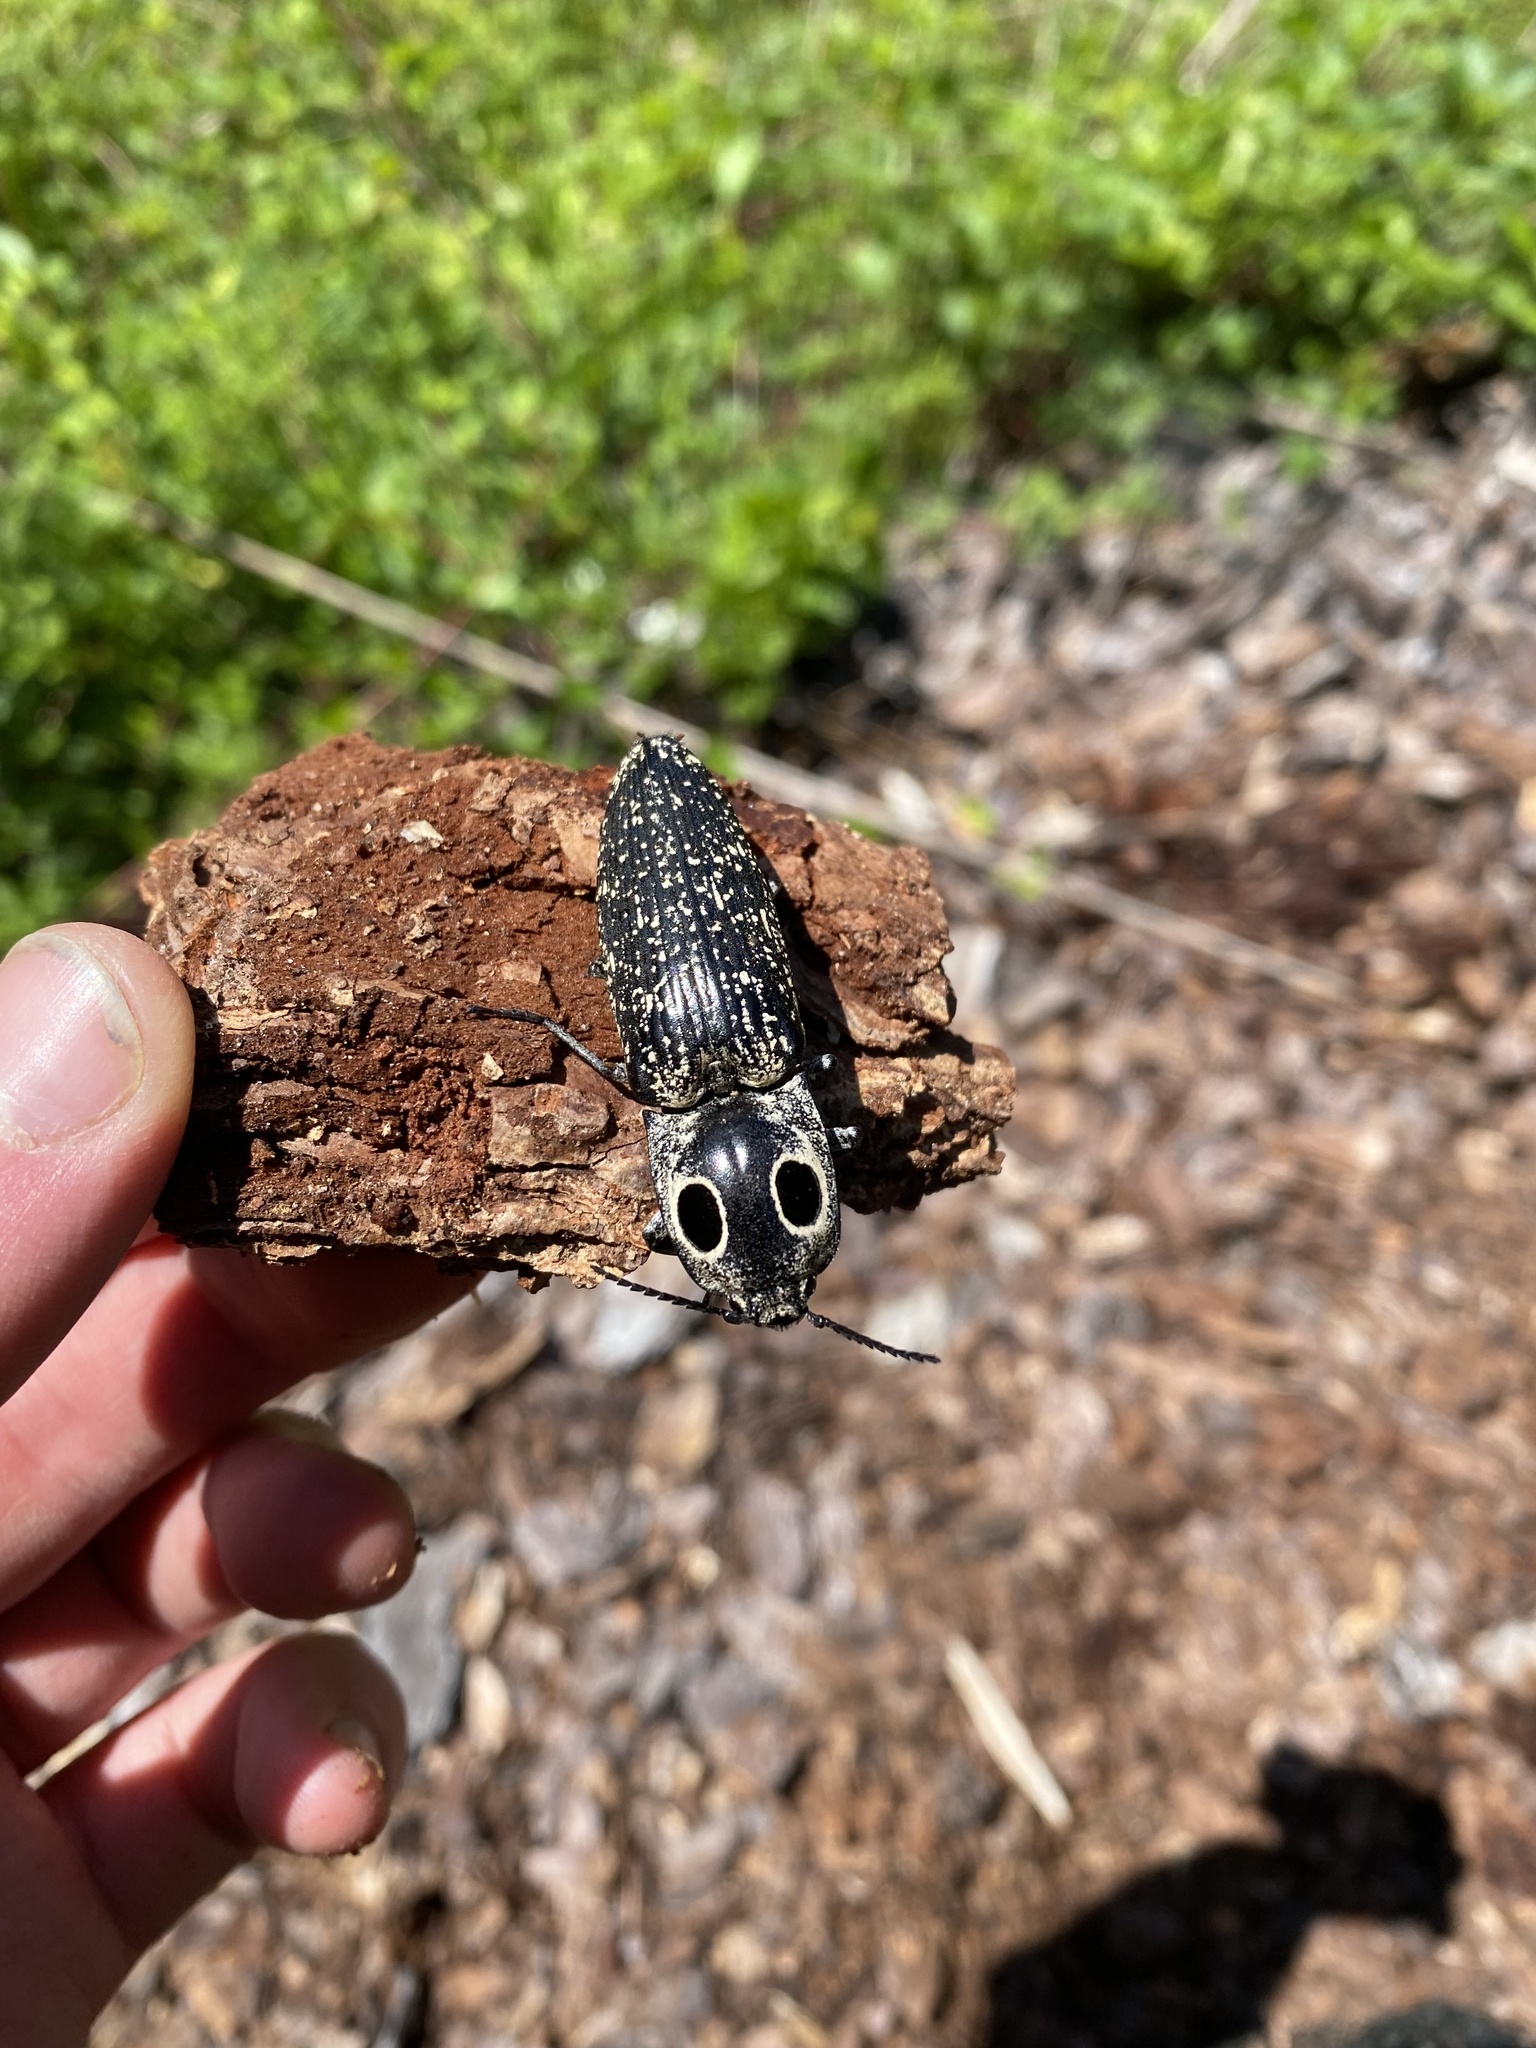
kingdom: Animalia
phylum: Arthropoda
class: Insecta
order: Coleoptera
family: Elateridae
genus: Alaus
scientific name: Alaus oculatus
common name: Eastern eyed click beetle
